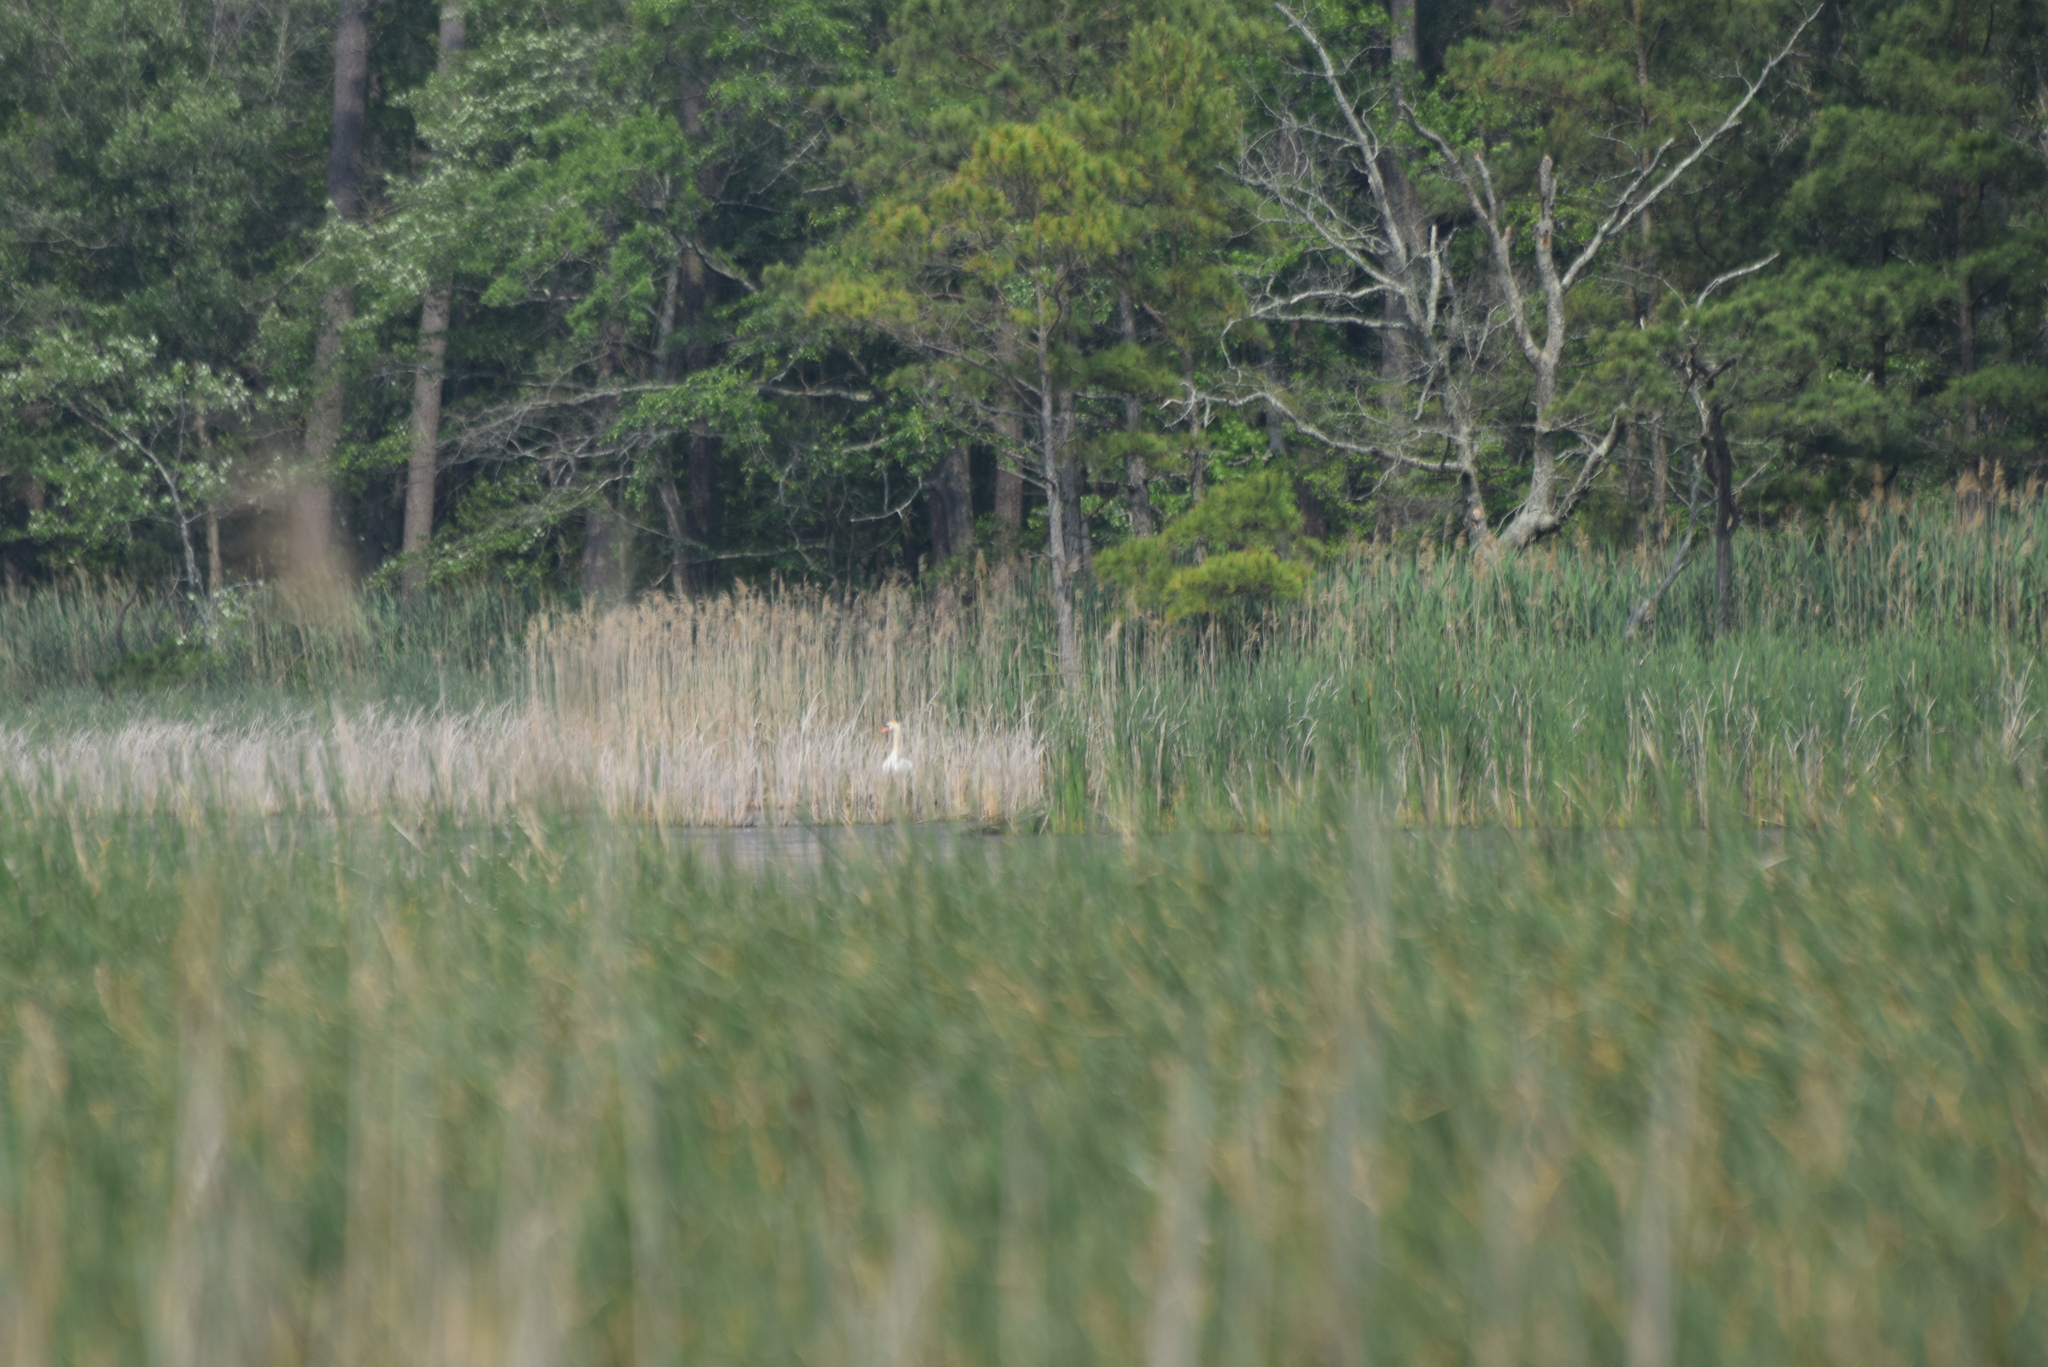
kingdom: Animalia
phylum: Chordata
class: Aves
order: Anseriformes
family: Anatidae
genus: Cygnus
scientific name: Cygnus olor
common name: Mute swan
